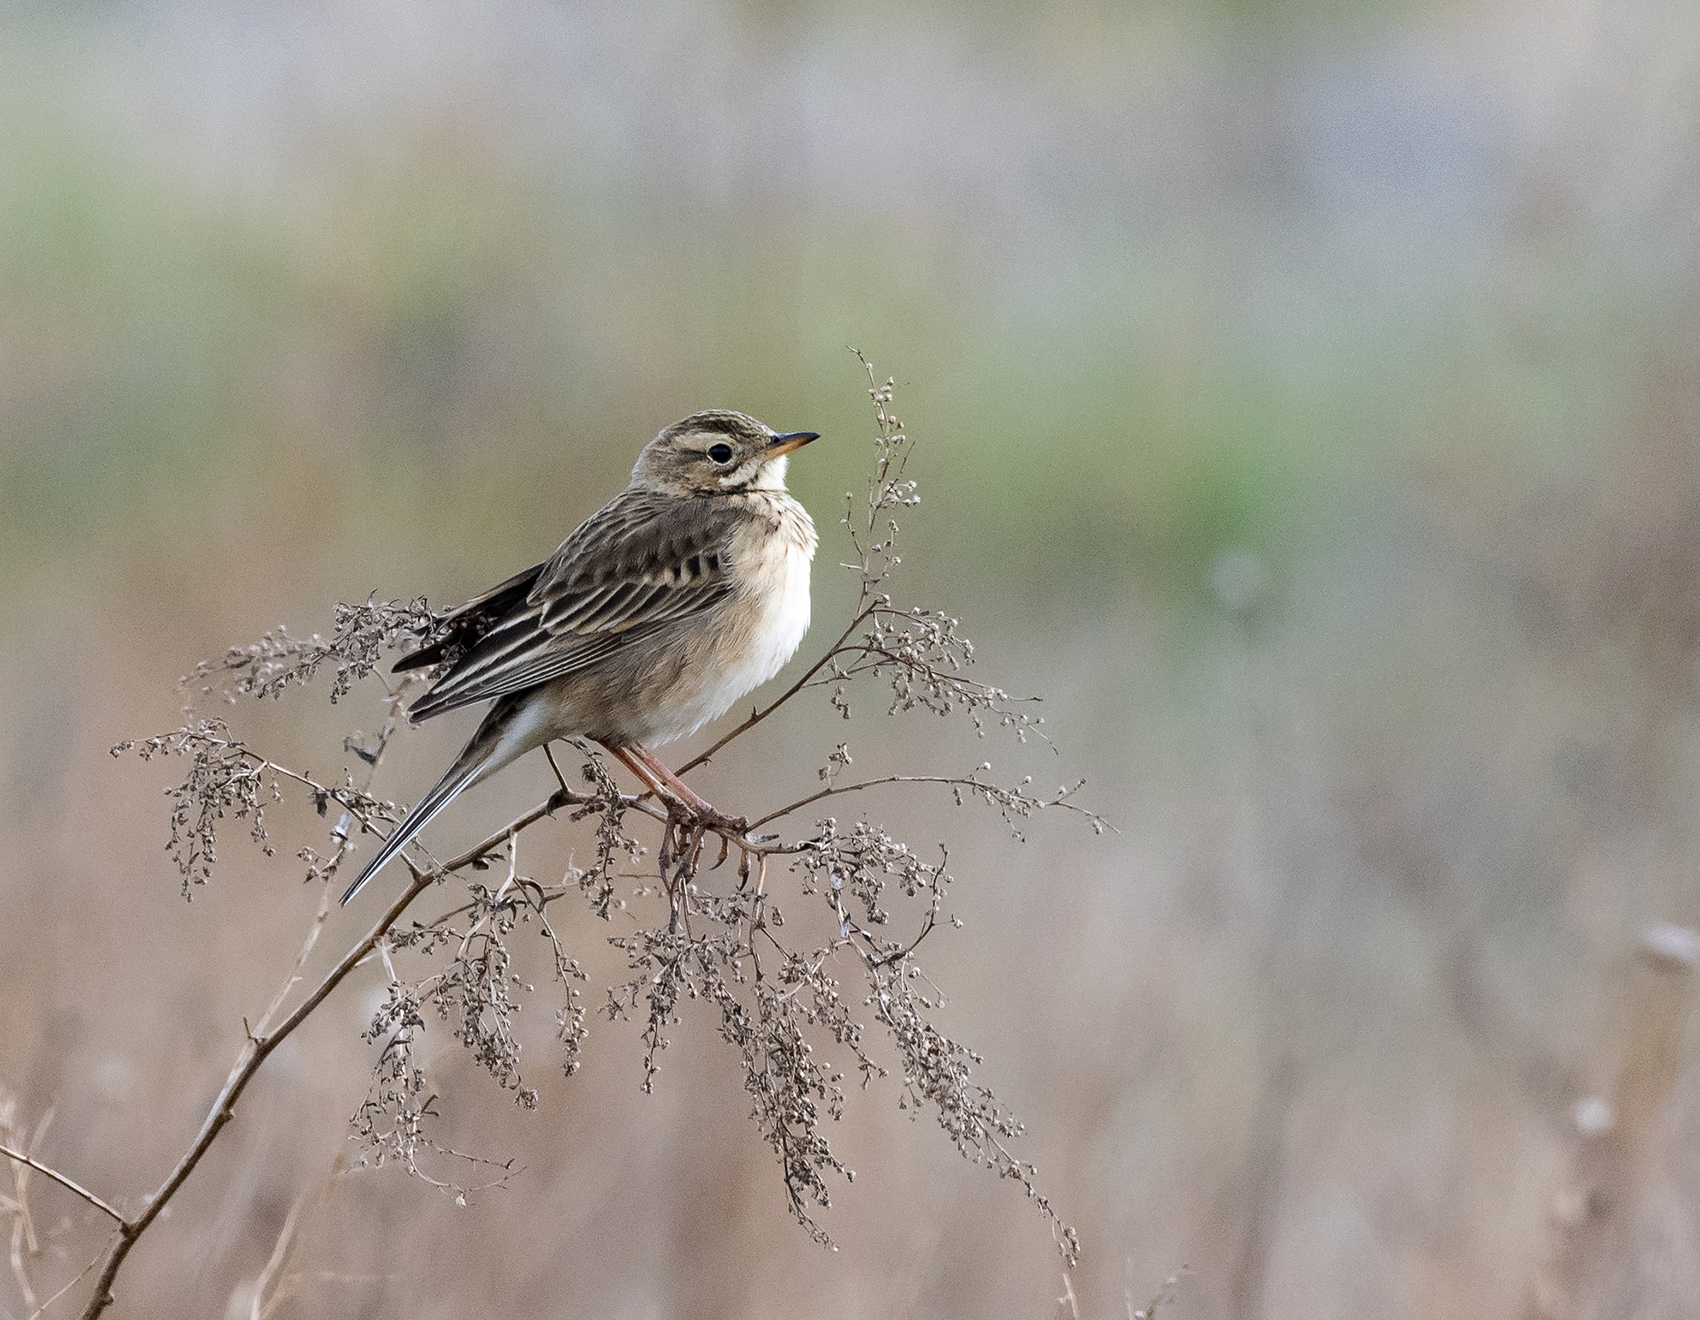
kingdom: Animalia
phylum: Chordata
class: Aves
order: Passeriformes
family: Motacillidae
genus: Anthus
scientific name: Anthus richardi
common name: Richard's pipit
